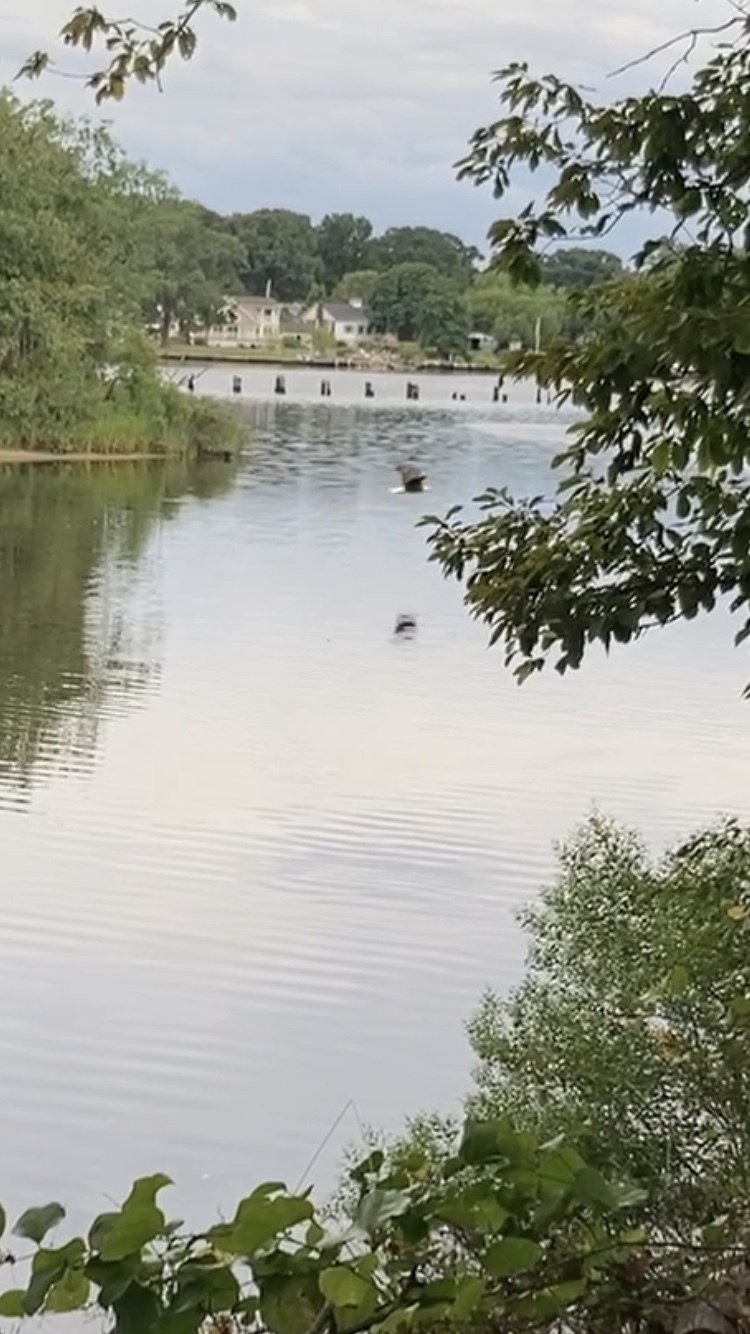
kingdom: Animalia
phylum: Chordata
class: Aves
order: Accipitriformes
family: Accipitridae
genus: Haliaeetus
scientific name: Haliaeetus leucocephalus
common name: Bald eagle
